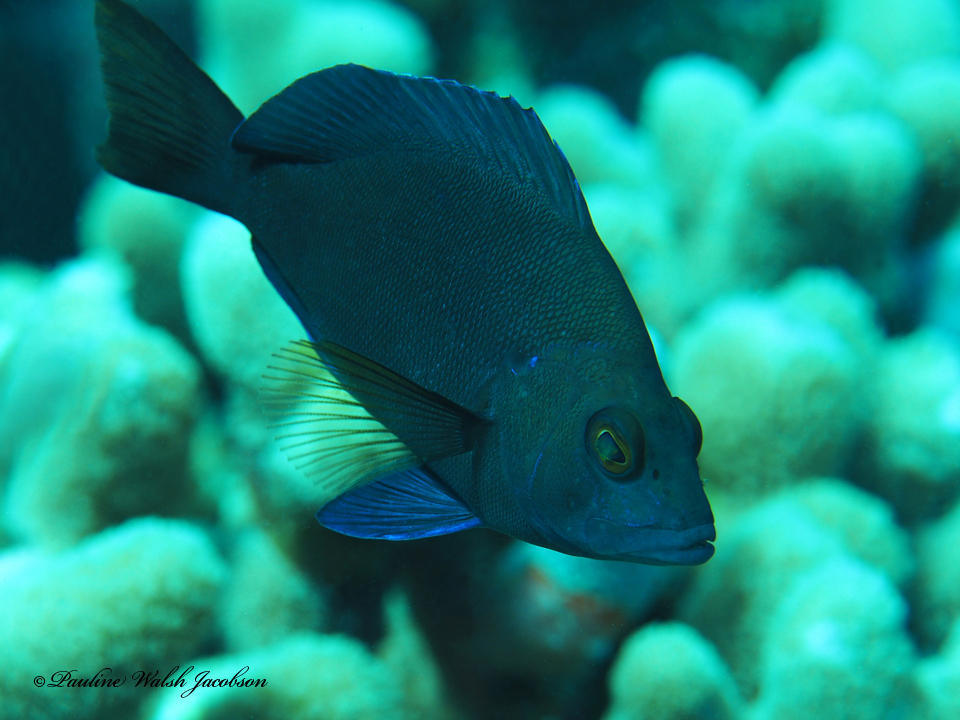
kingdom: Animalia
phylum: Chordata
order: Perciformes
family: Serranidae
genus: Hypoplectrus
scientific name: Hypoplectrus nigricans
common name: Black hamlet
